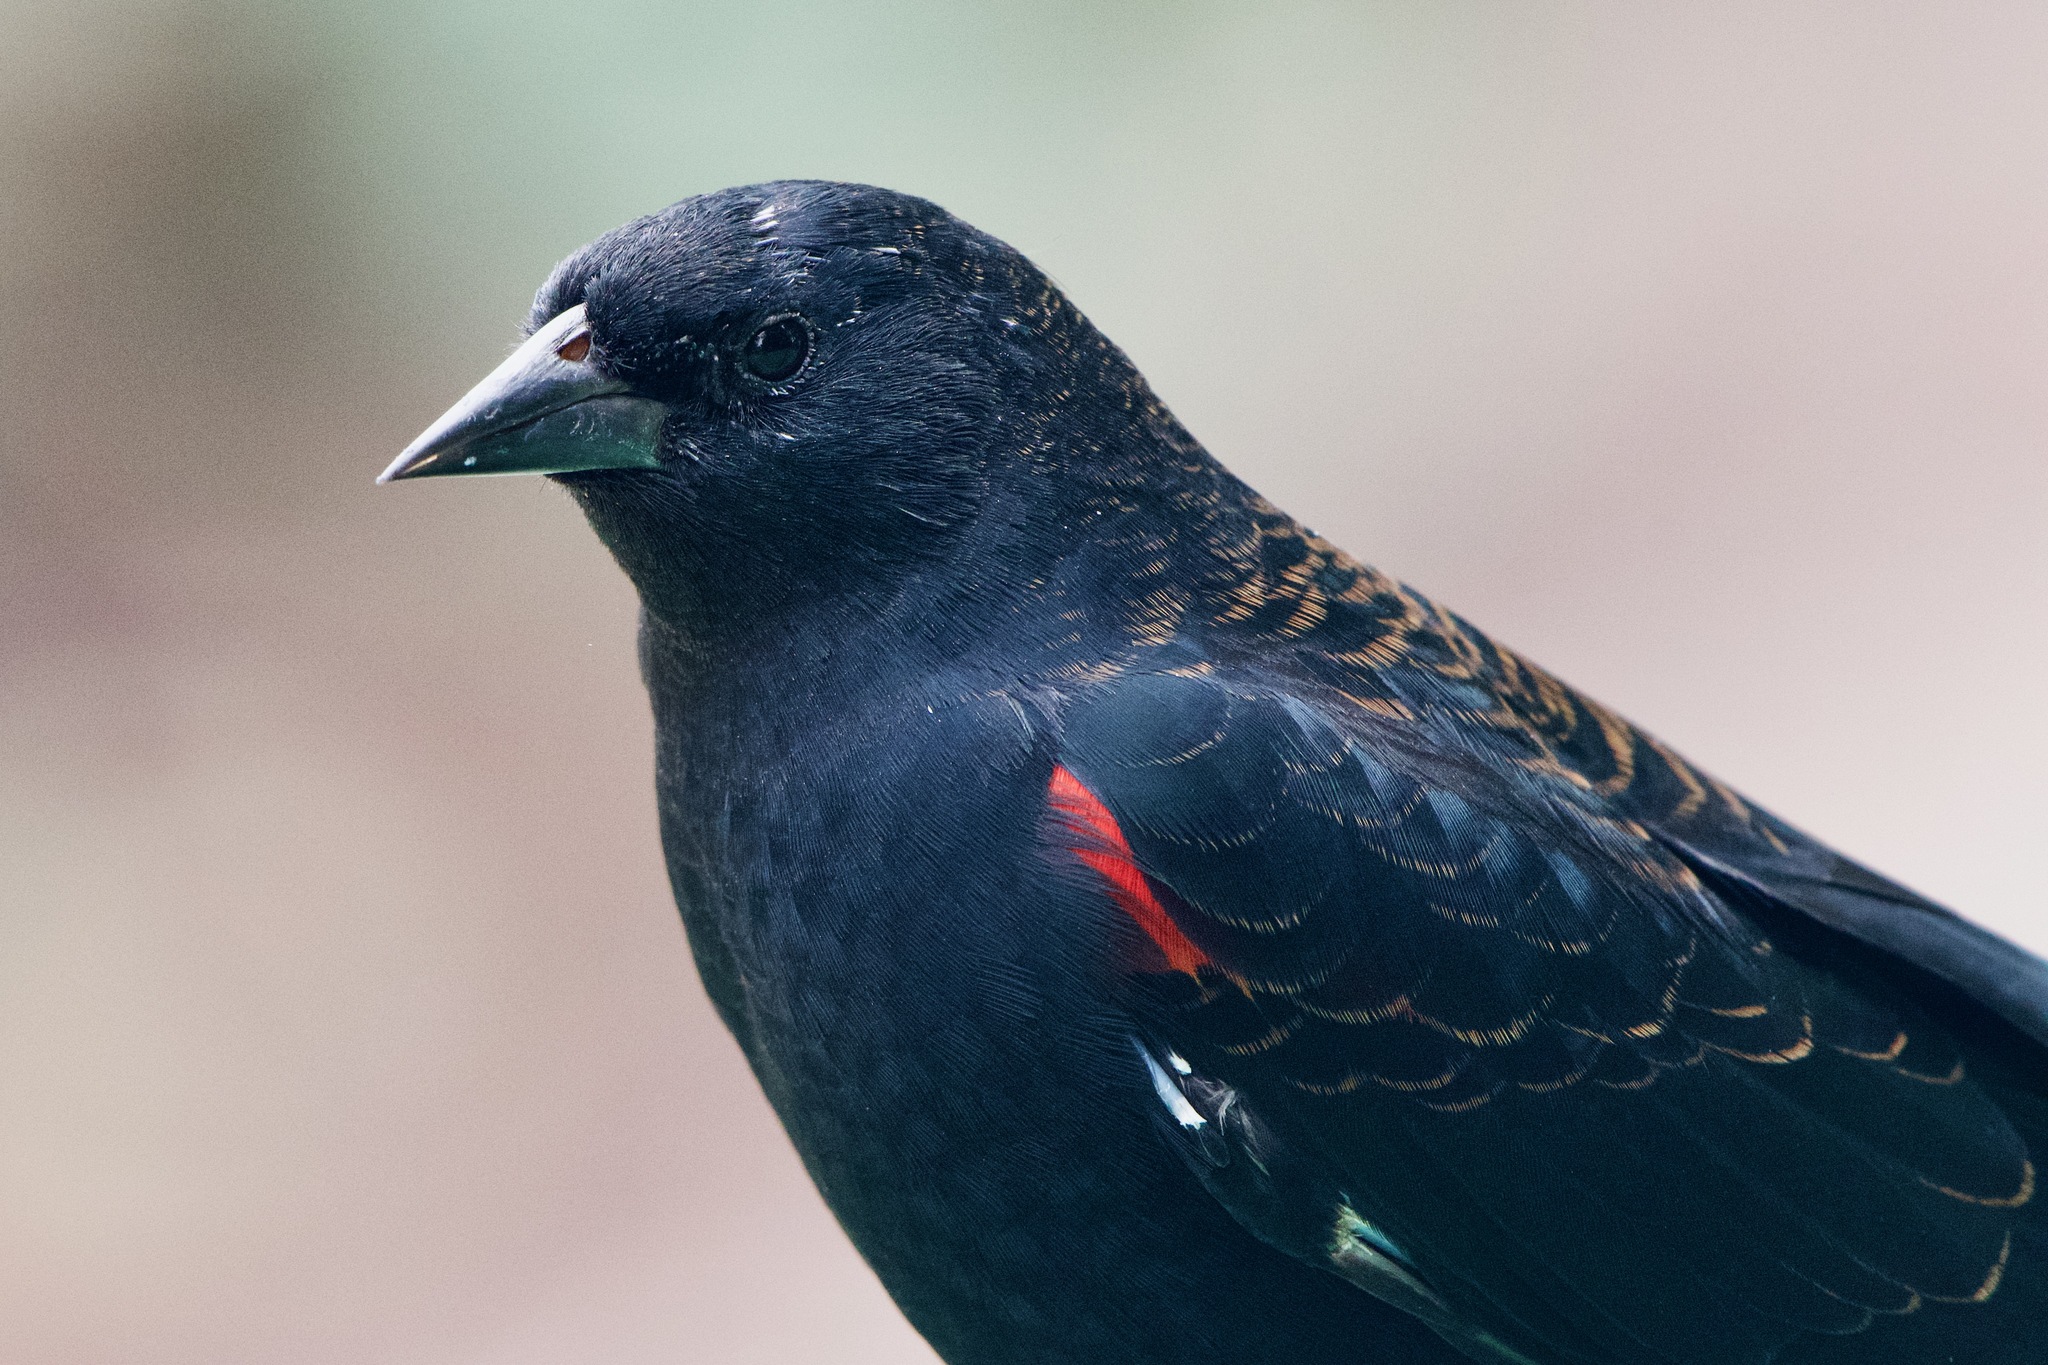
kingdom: Animalia
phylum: Chordata
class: Aves
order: Passeriformes
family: Icteridae
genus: Agelaius
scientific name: Agelaius phoeniceus
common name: Red-winged blackbird
